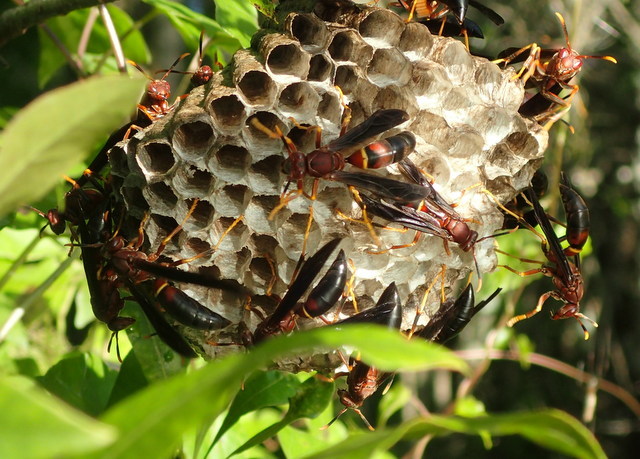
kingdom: Animalia
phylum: Arthropoda
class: Insecta
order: Hymenoptera
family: Eumenidae
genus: Polistes
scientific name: Polistes annularis
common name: Ringed paper wasp
